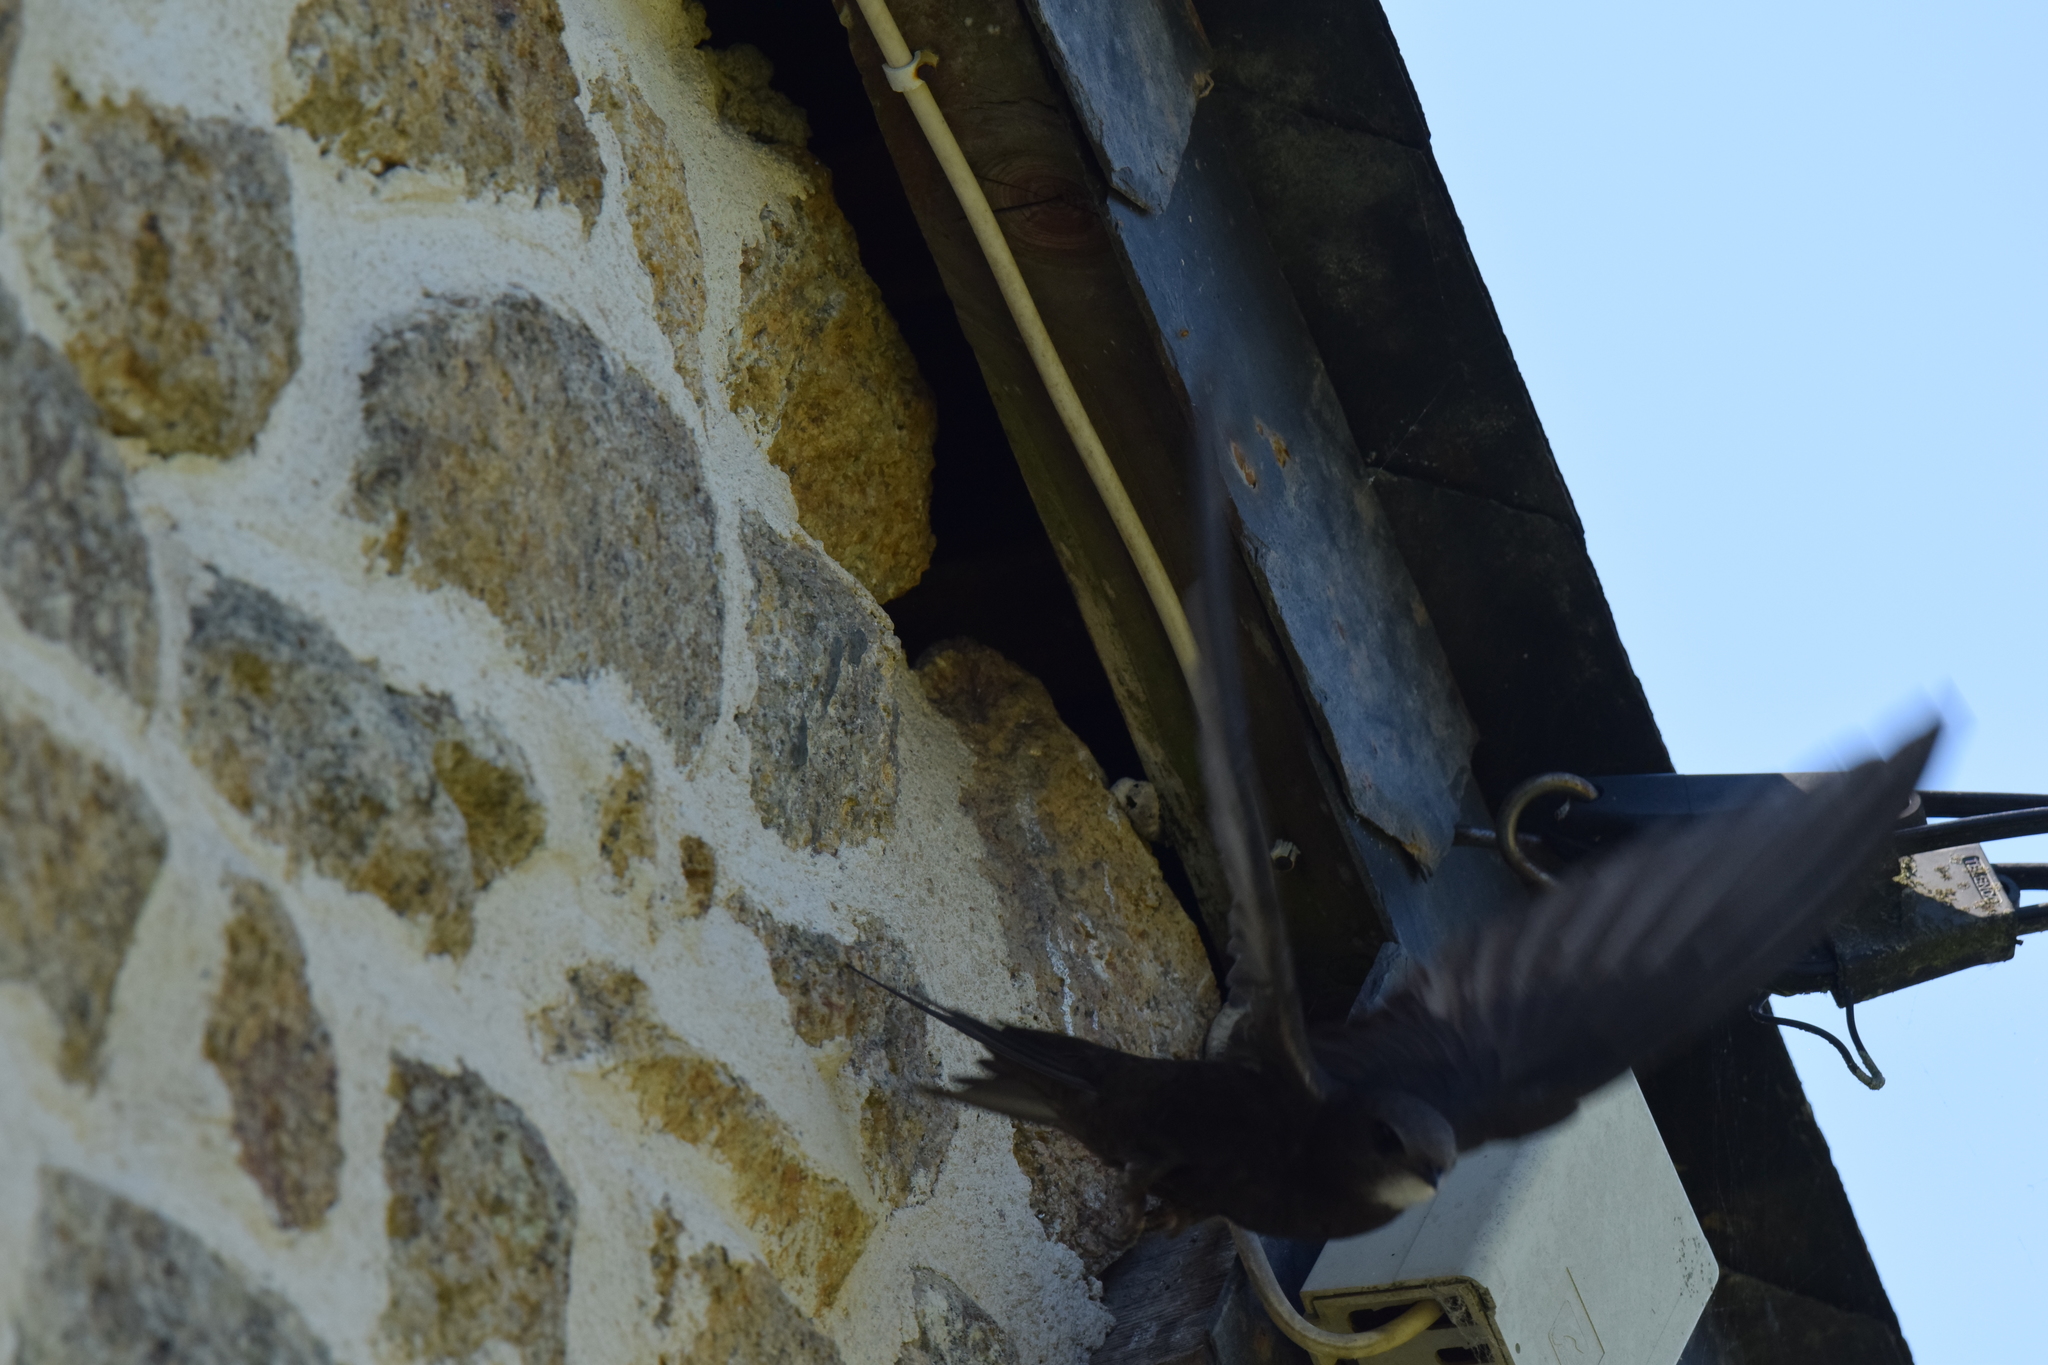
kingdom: Animalia
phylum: Chordata
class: Aves
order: Apodiformes
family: Apodidae
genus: Apus
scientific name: Apus apus
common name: Common swift
